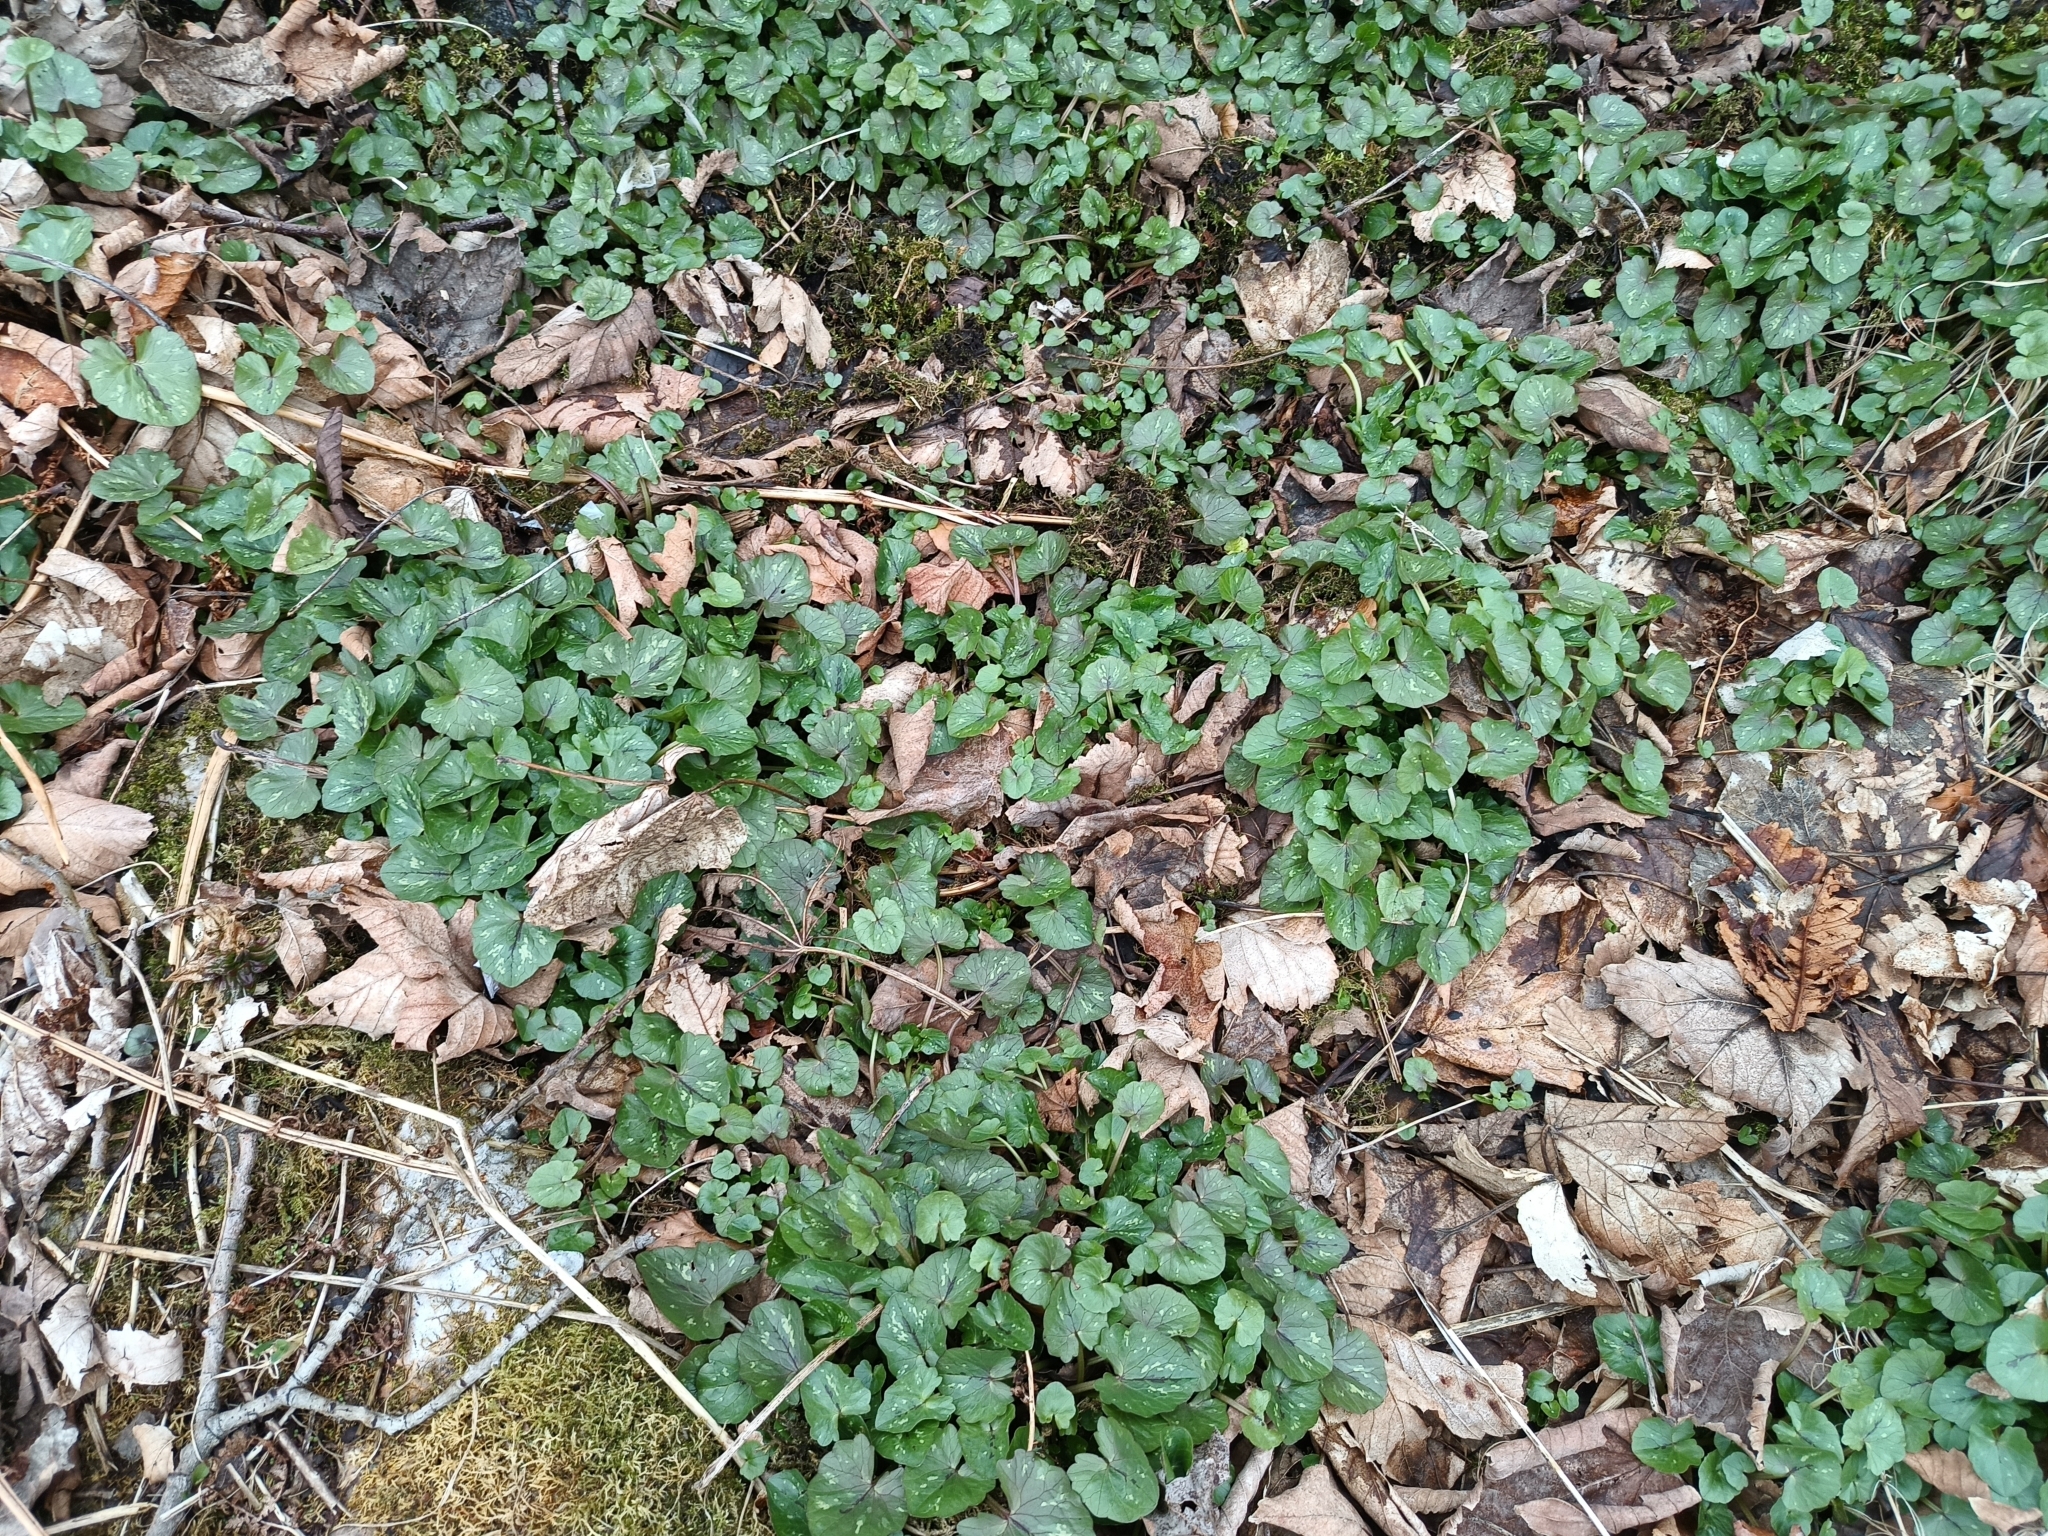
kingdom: Plantae
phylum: Tracheophyta
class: Magnoliopsida
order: Ranunculales
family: Ranunculaceae
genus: Ficaria
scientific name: Ficaria verna
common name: Lesser celandine
